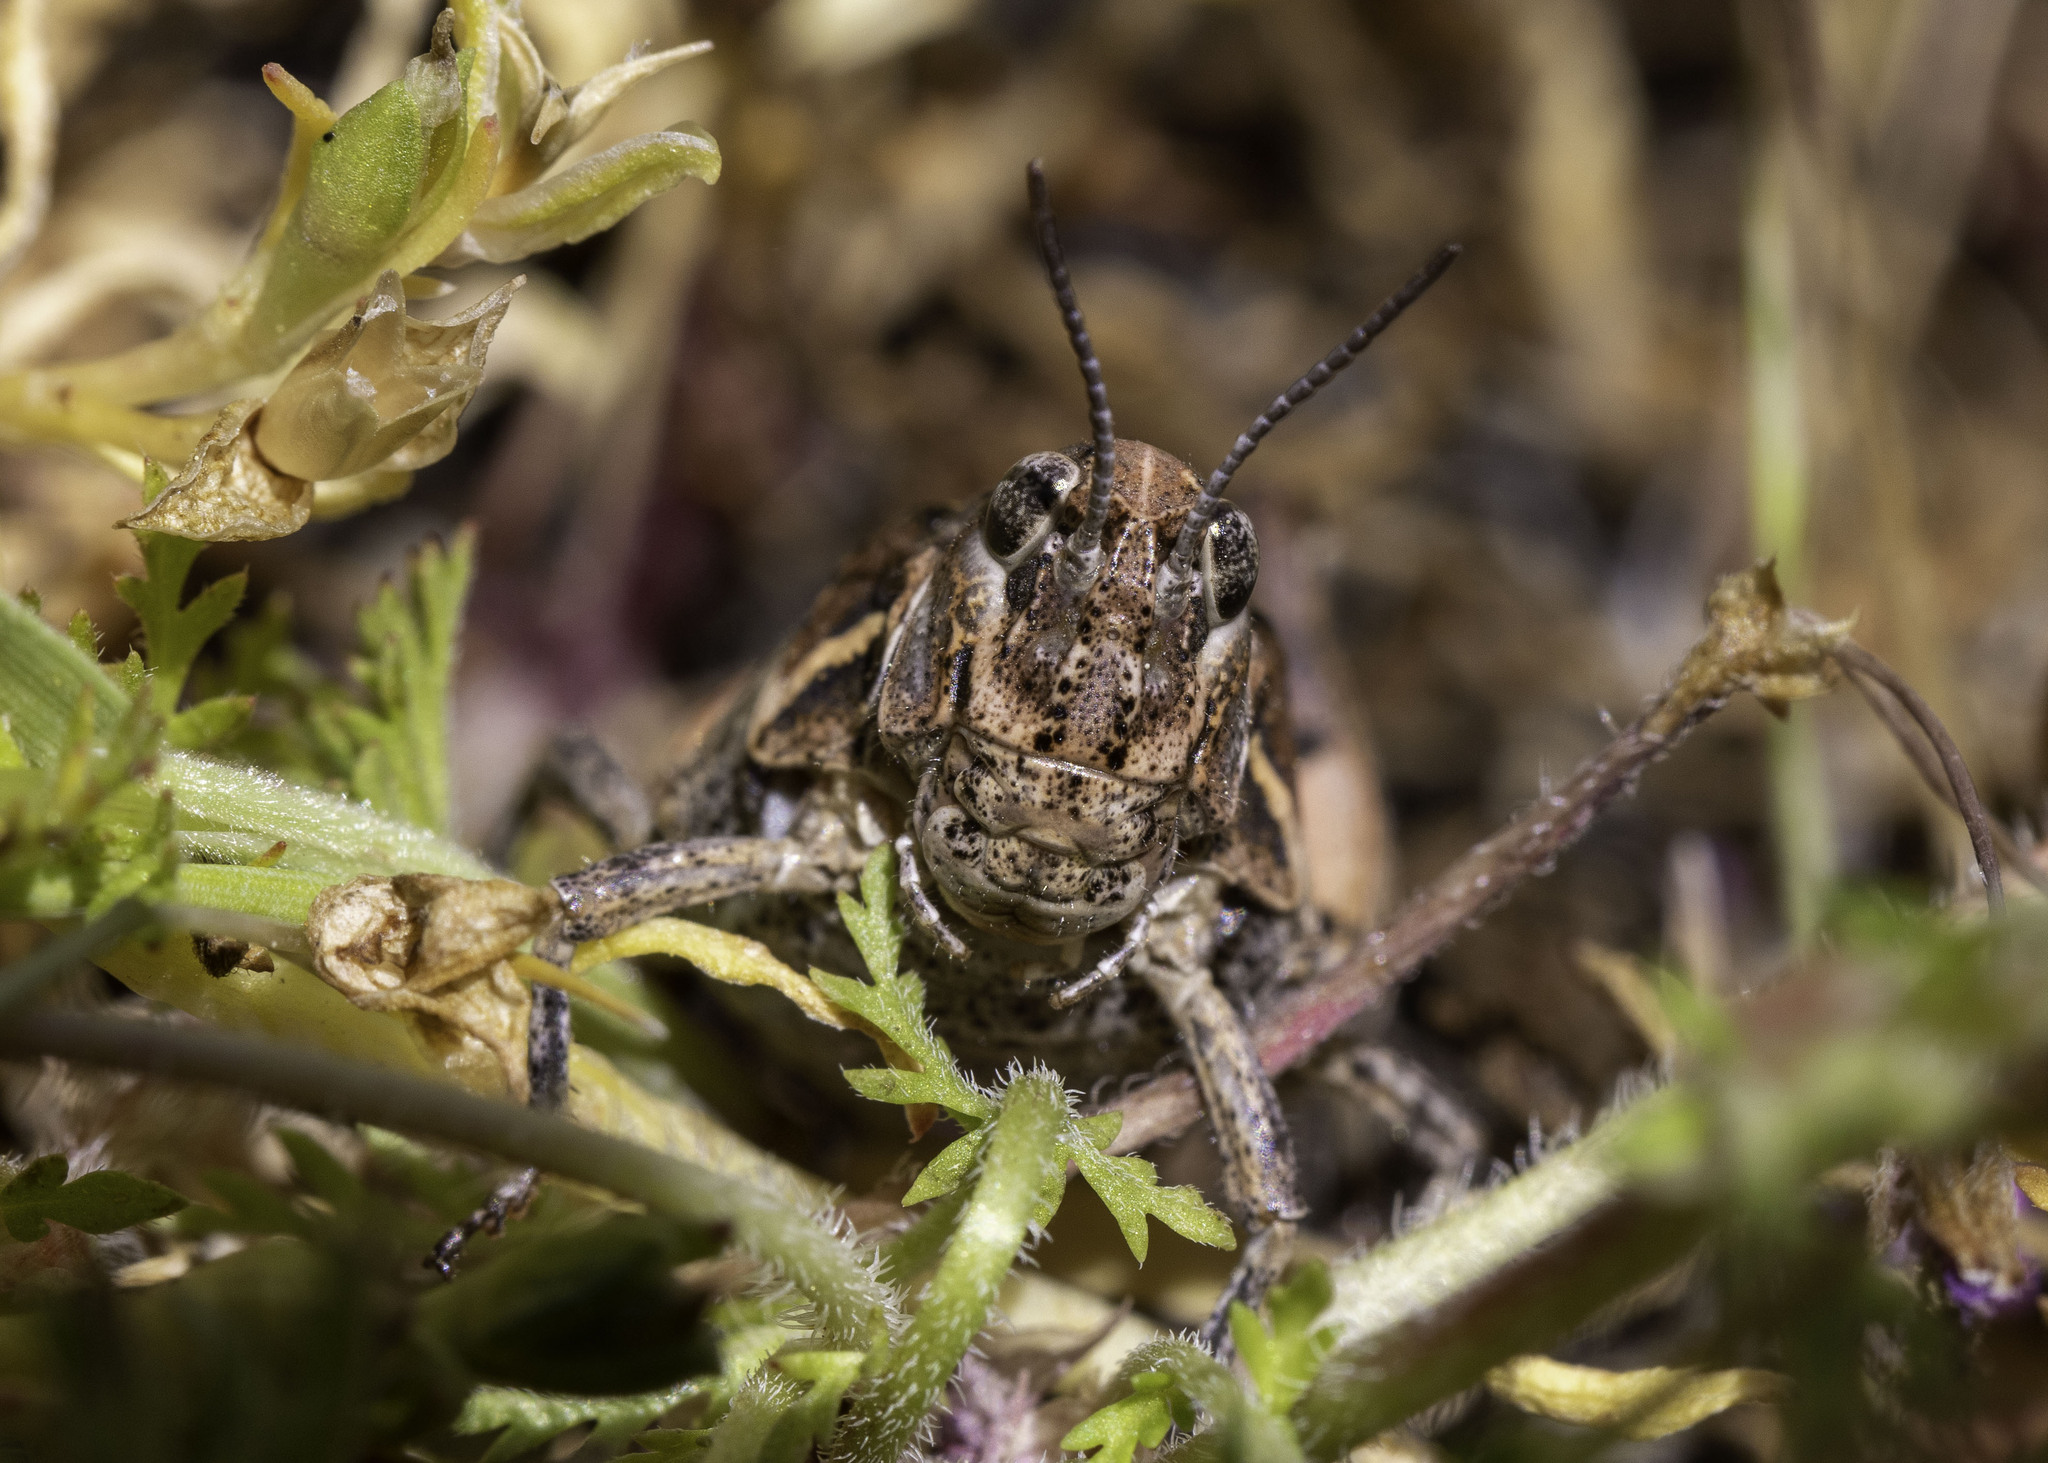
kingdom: Animalia
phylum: Arthropoda
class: Insecta
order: Orthoptera
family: Acrididae
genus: Esselenia
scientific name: Esselenia vanduzeei
